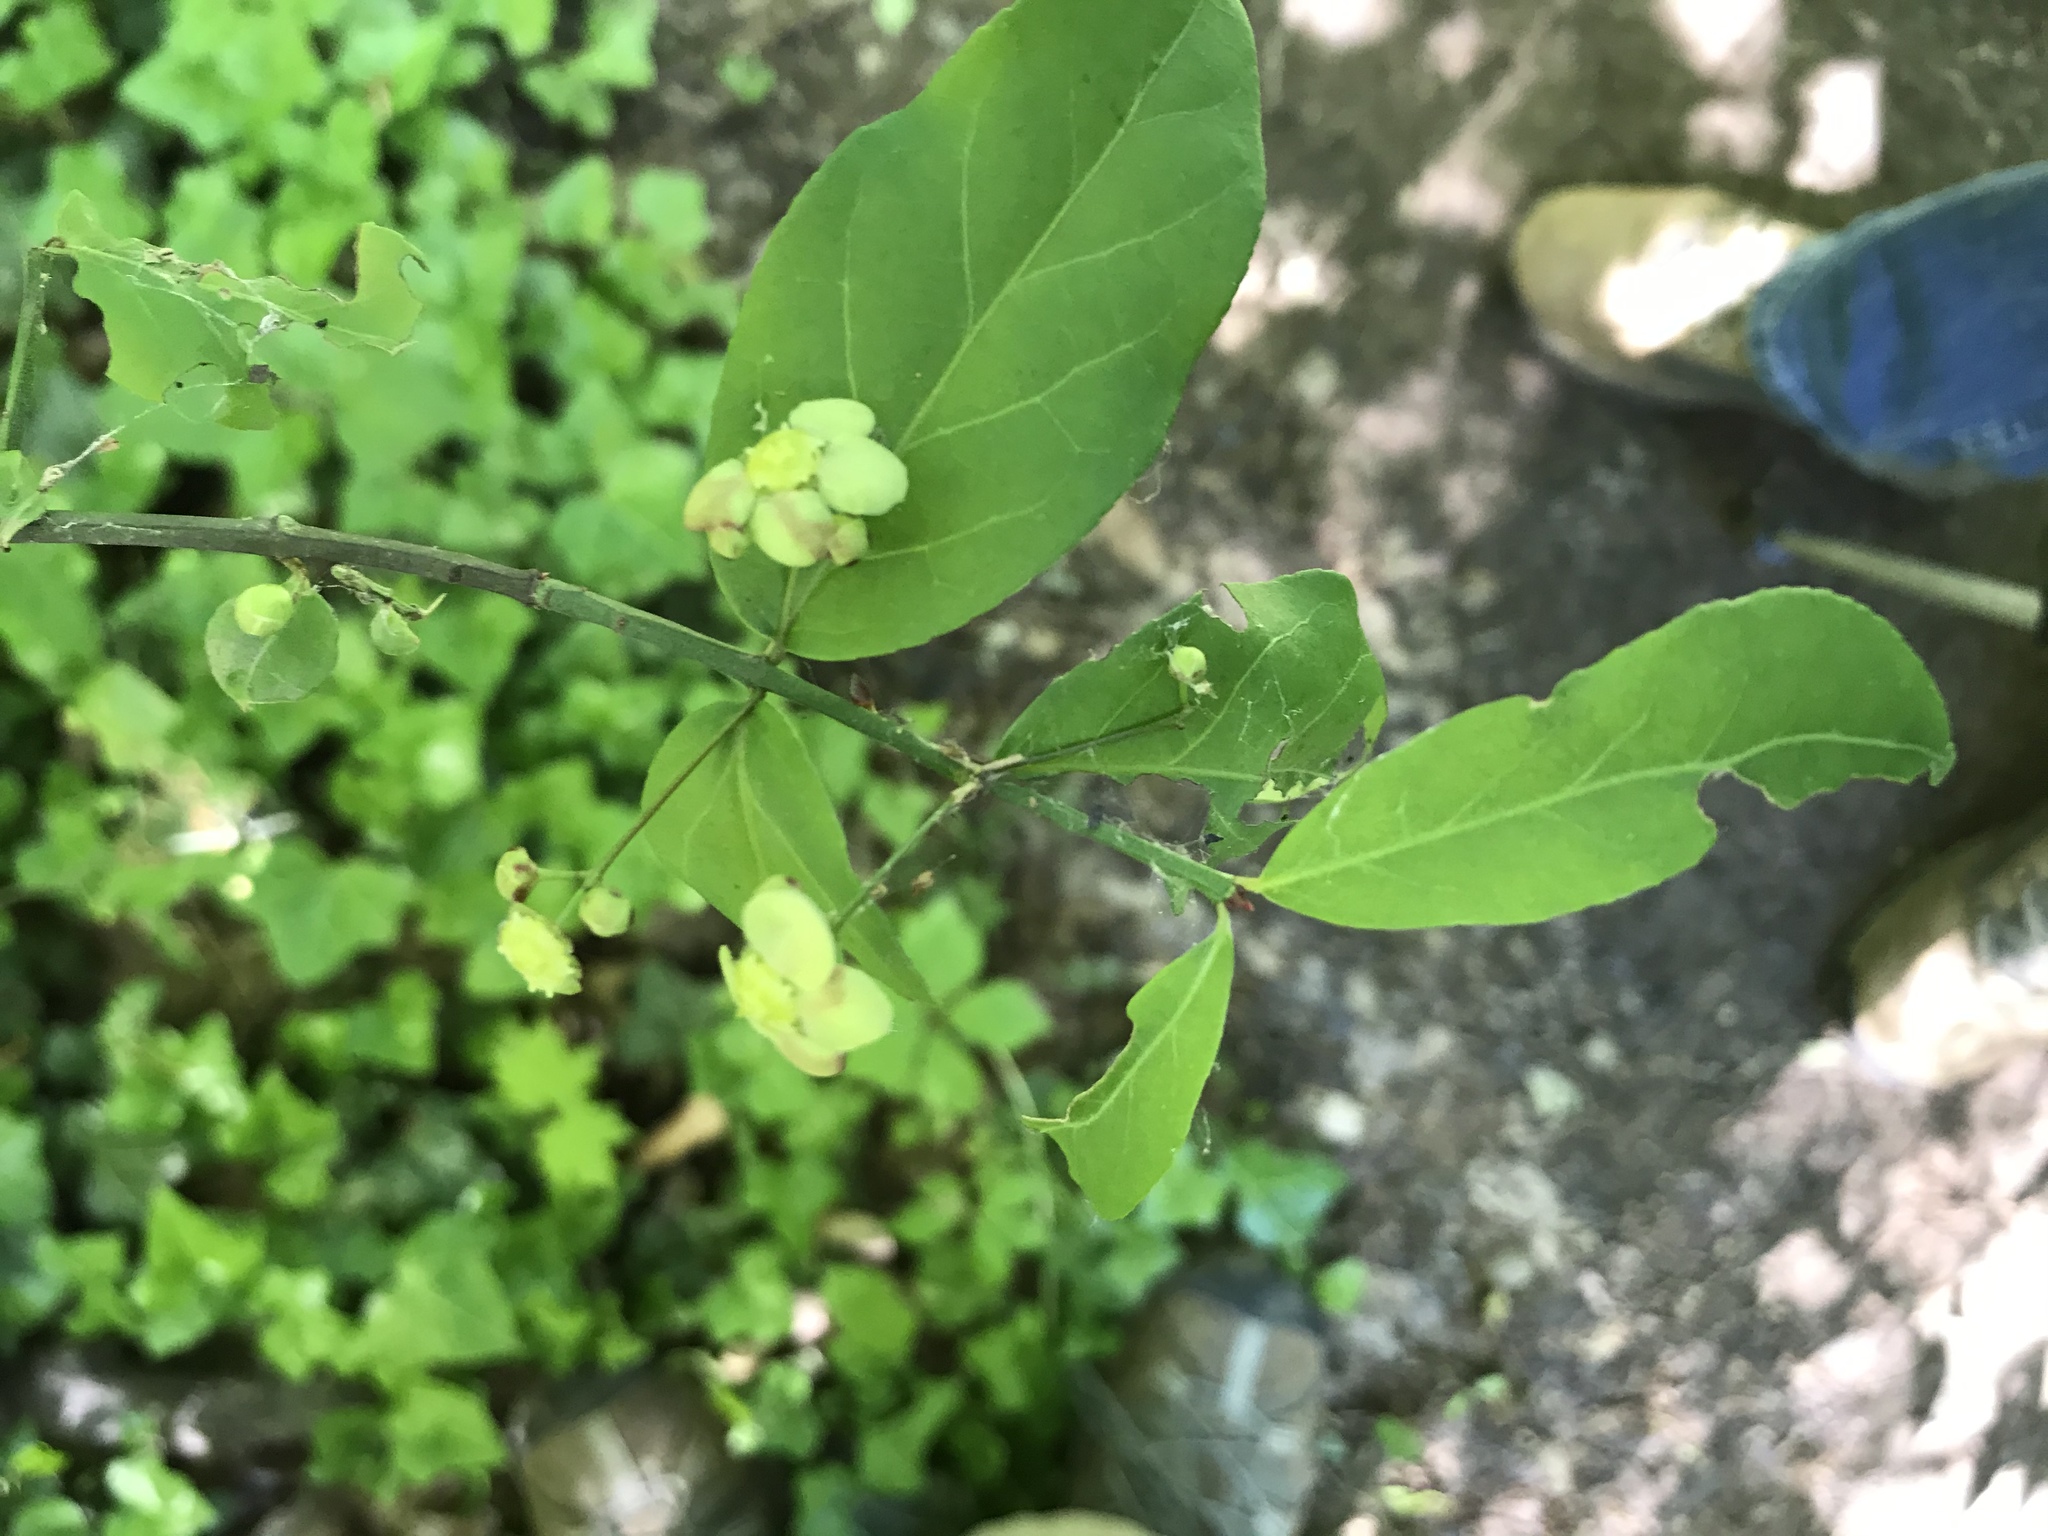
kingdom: Plantae
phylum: Tracheophyta
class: Magnoliopsida
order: Celastrales
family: Celastraceae
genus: Euonymus
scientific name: Euonymus americanus
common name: Bursting-heart
